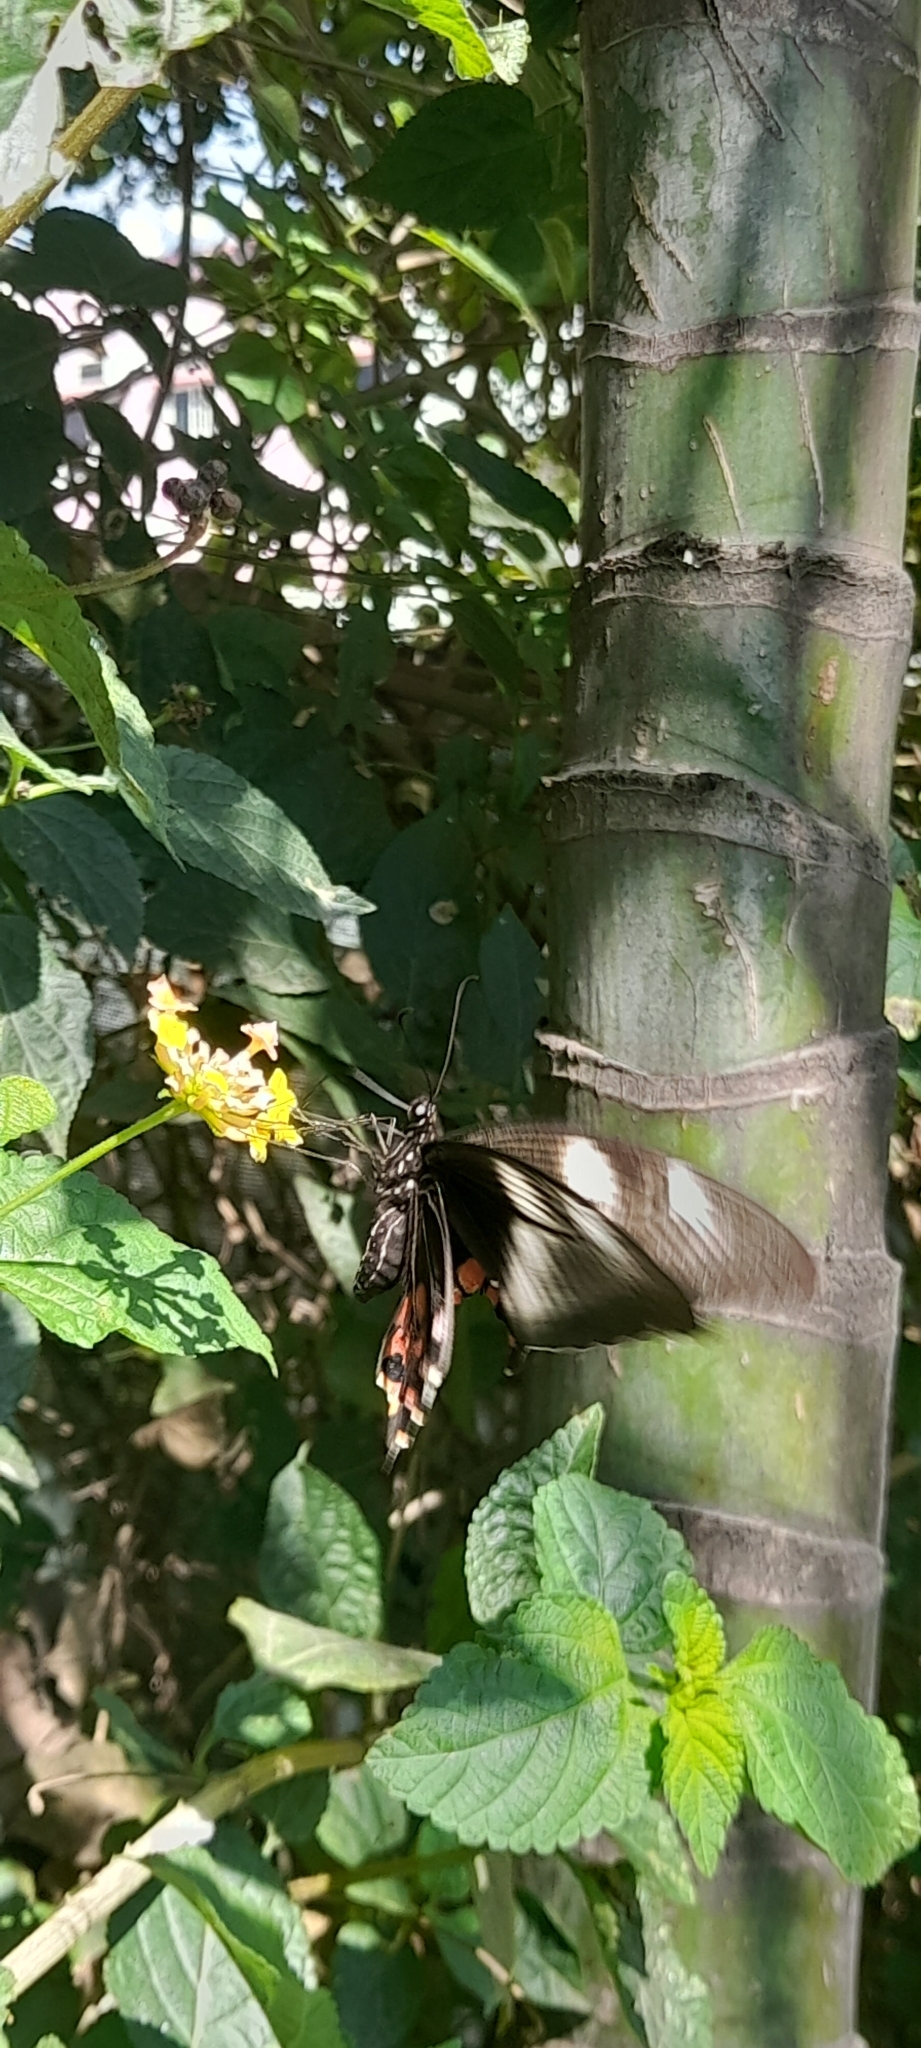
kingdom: Animalia
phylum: Arthropoda
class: Insecta
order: Lepidoptera
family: Papilionidae
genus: Papilio
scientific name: Papilio polytes
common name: Common mormon
